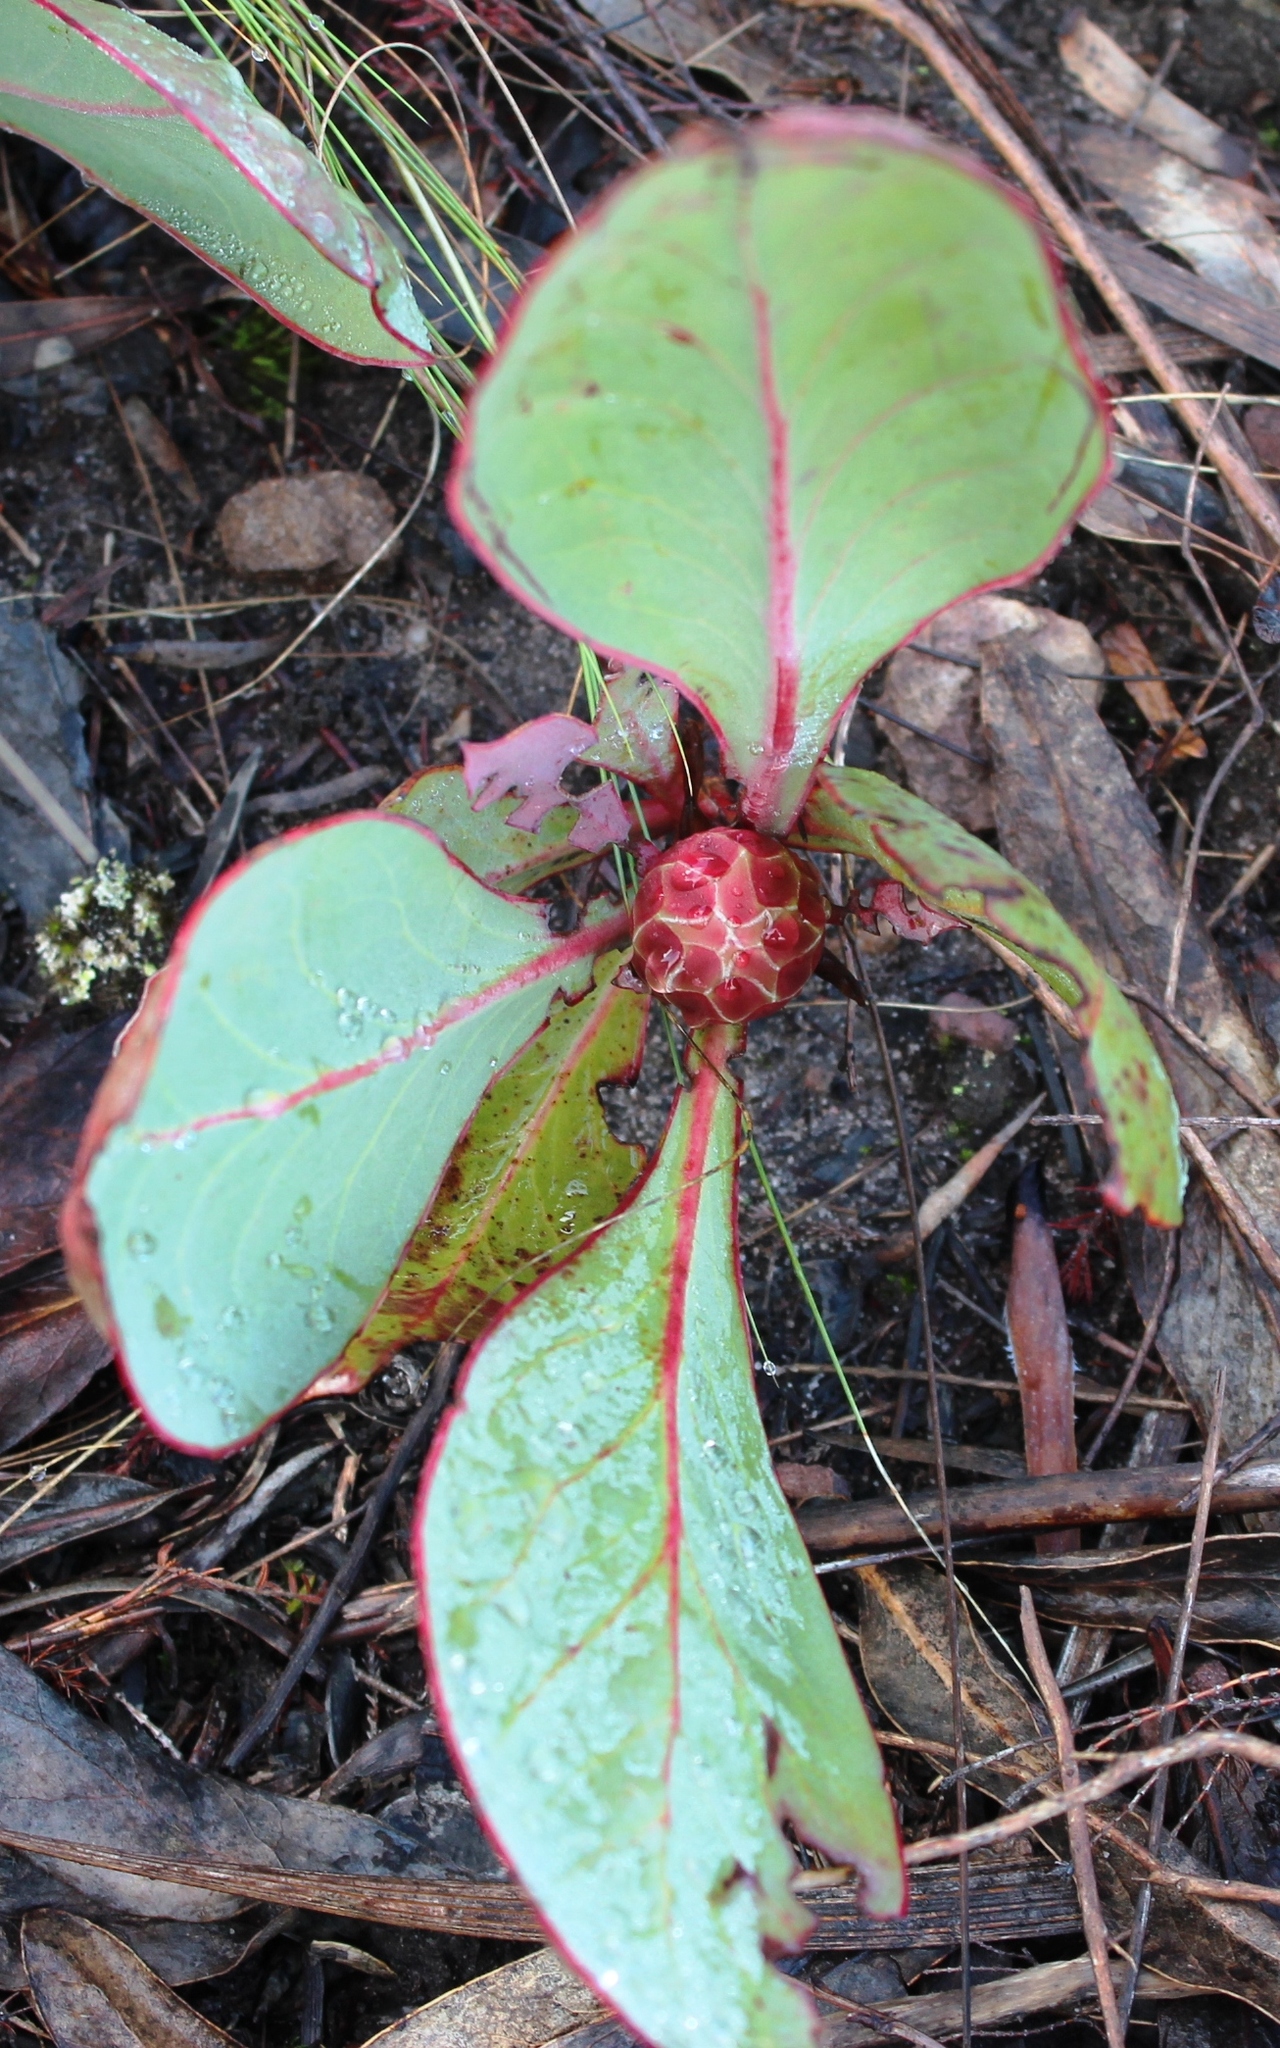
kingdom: Plantae
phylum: Tracheophyta
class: Magnoliopsida
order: Proteales
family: Proteaceae
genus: Protea
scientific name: Protea acaulos
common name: Common ground sugarbush
